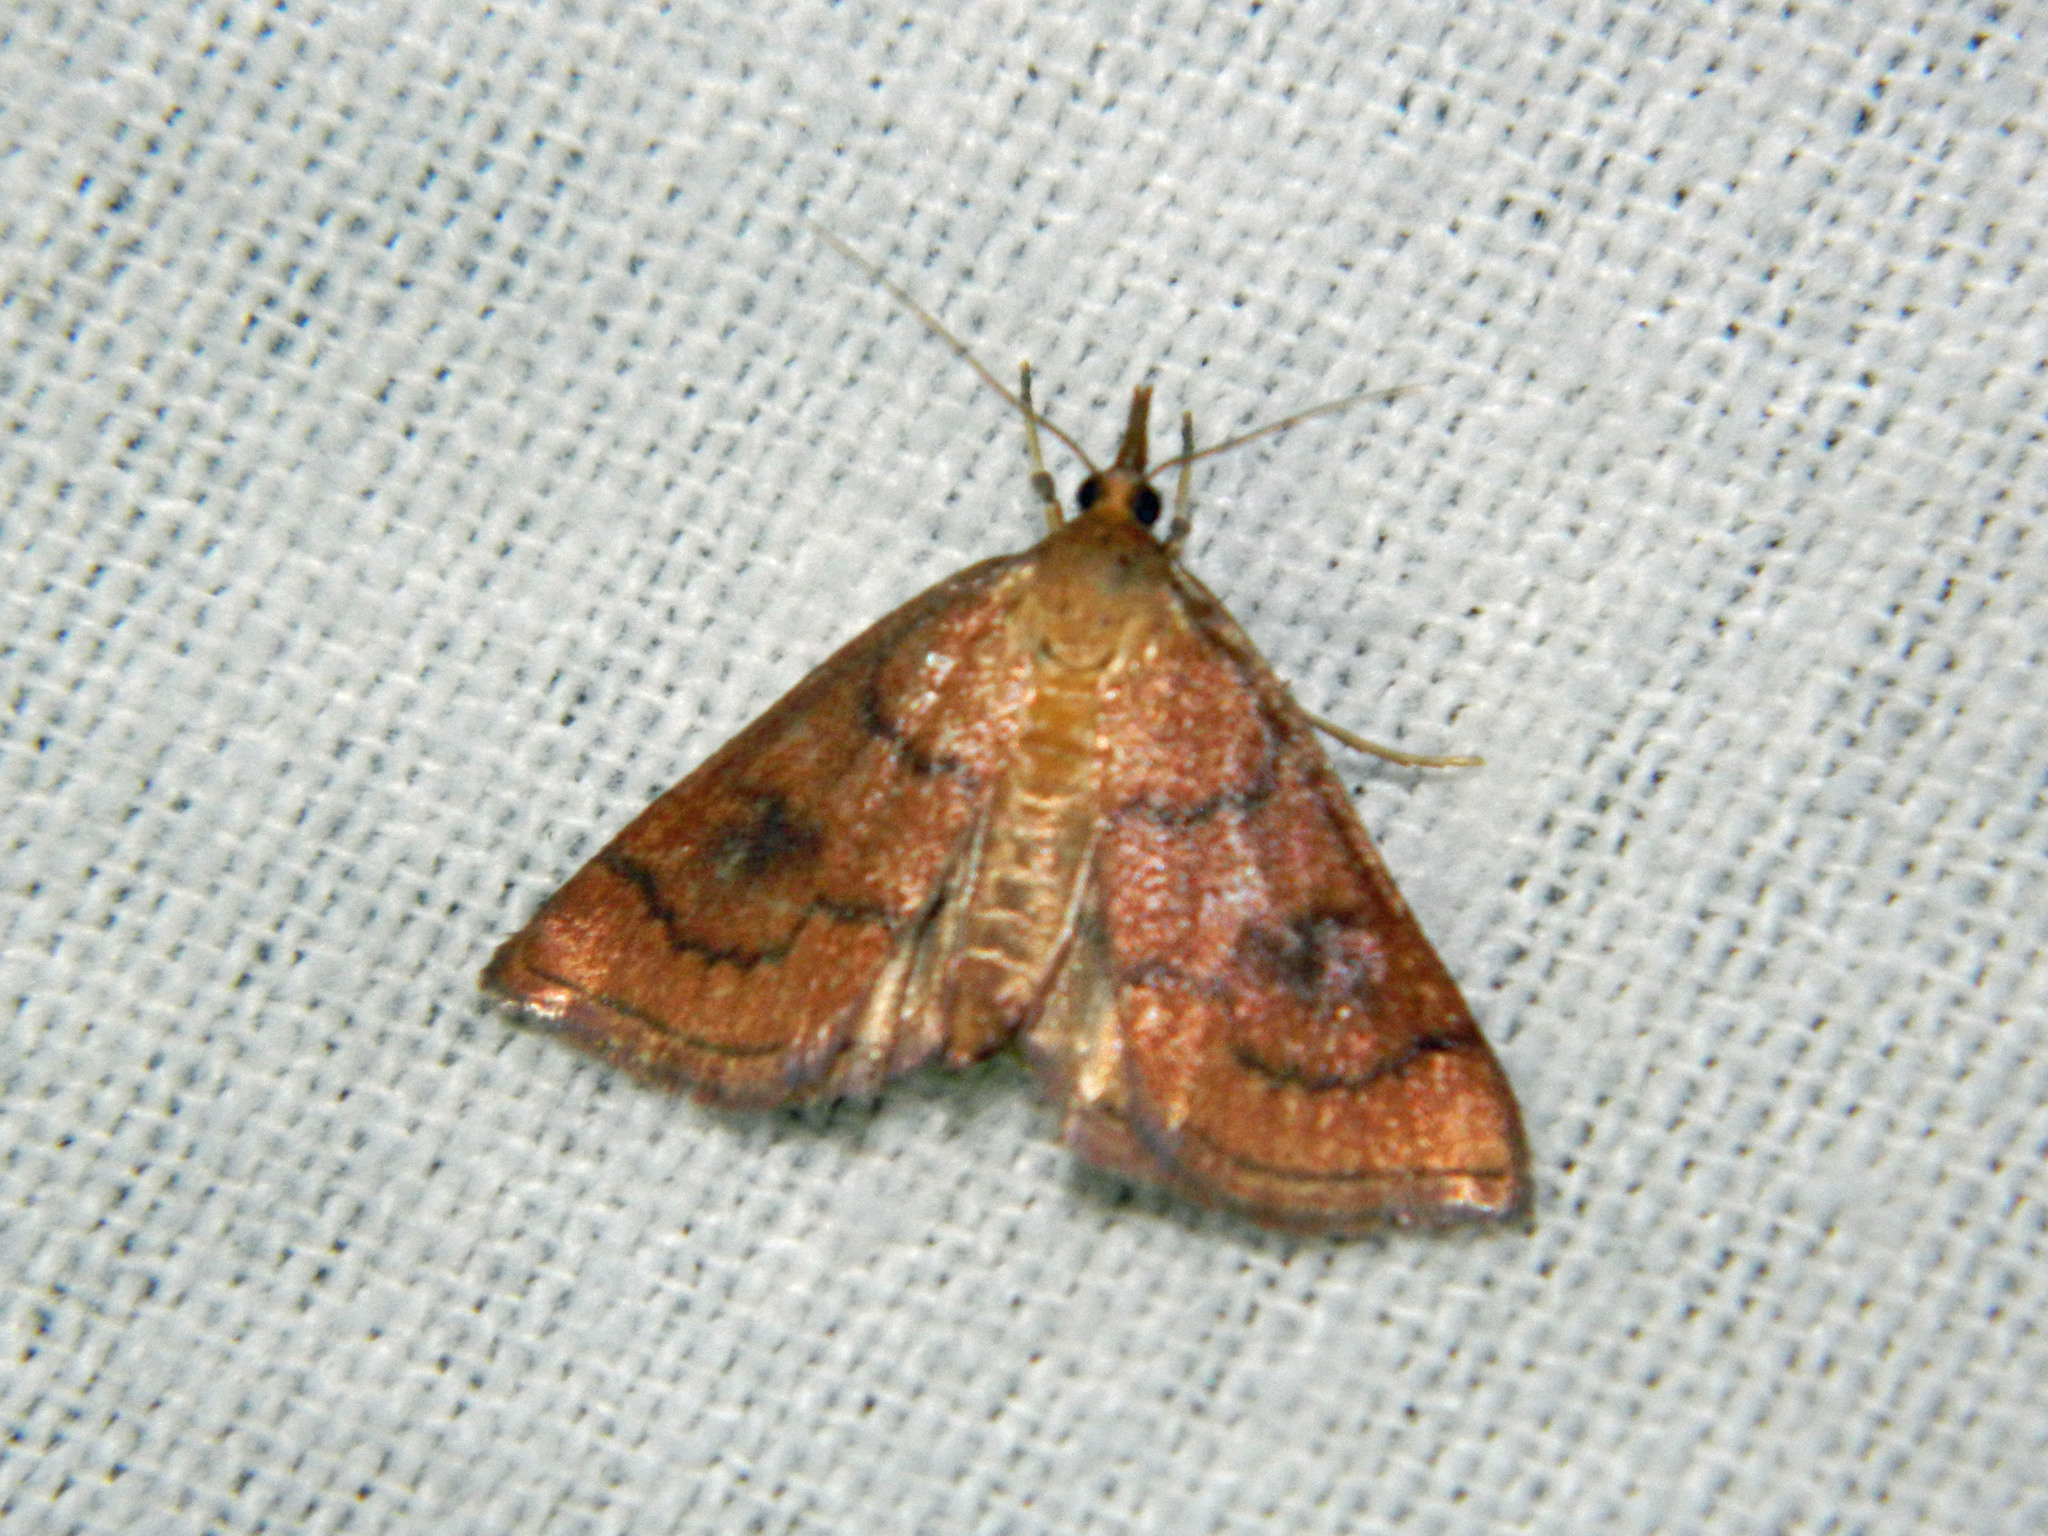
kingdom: Animalia
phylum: Arthropoda
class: Insecta
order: Lepidoptera
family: Crambidae
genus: Fumibotys
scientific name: Fumibotys fumalis
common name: Mint root borer moth
